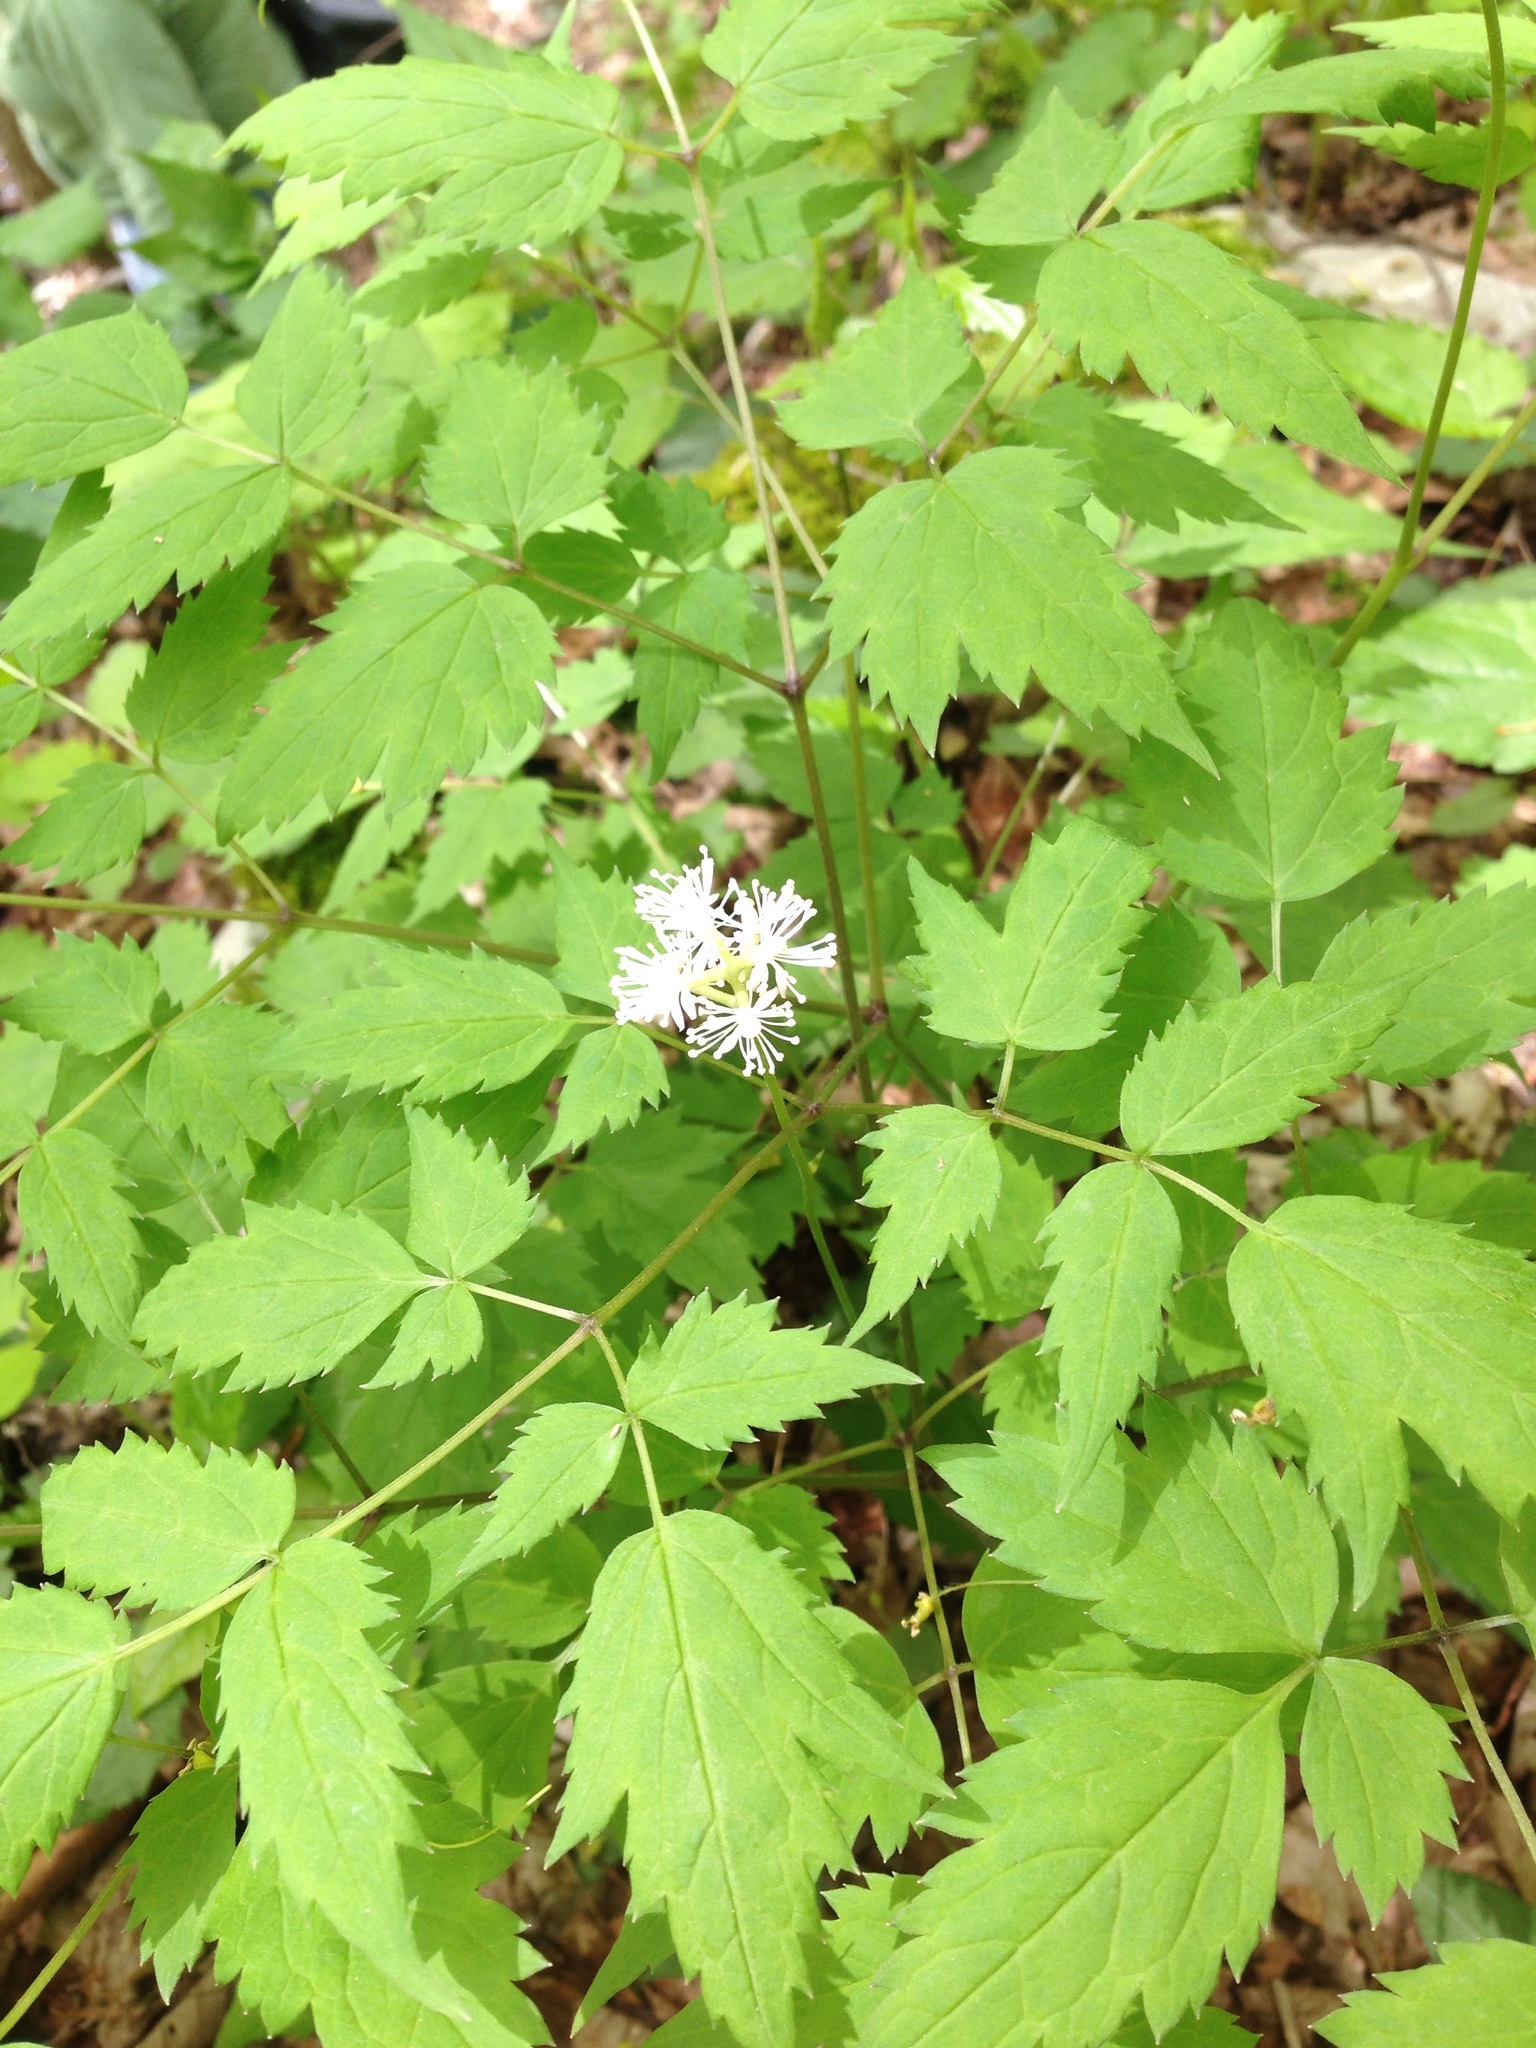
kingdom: Plantae
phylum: Tracheophyta
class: Magnoliopsida
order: Ranunculales
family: Ranunculaceae
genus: Actaea
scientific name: Actaea pachypoda
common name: Doll's-eyes
